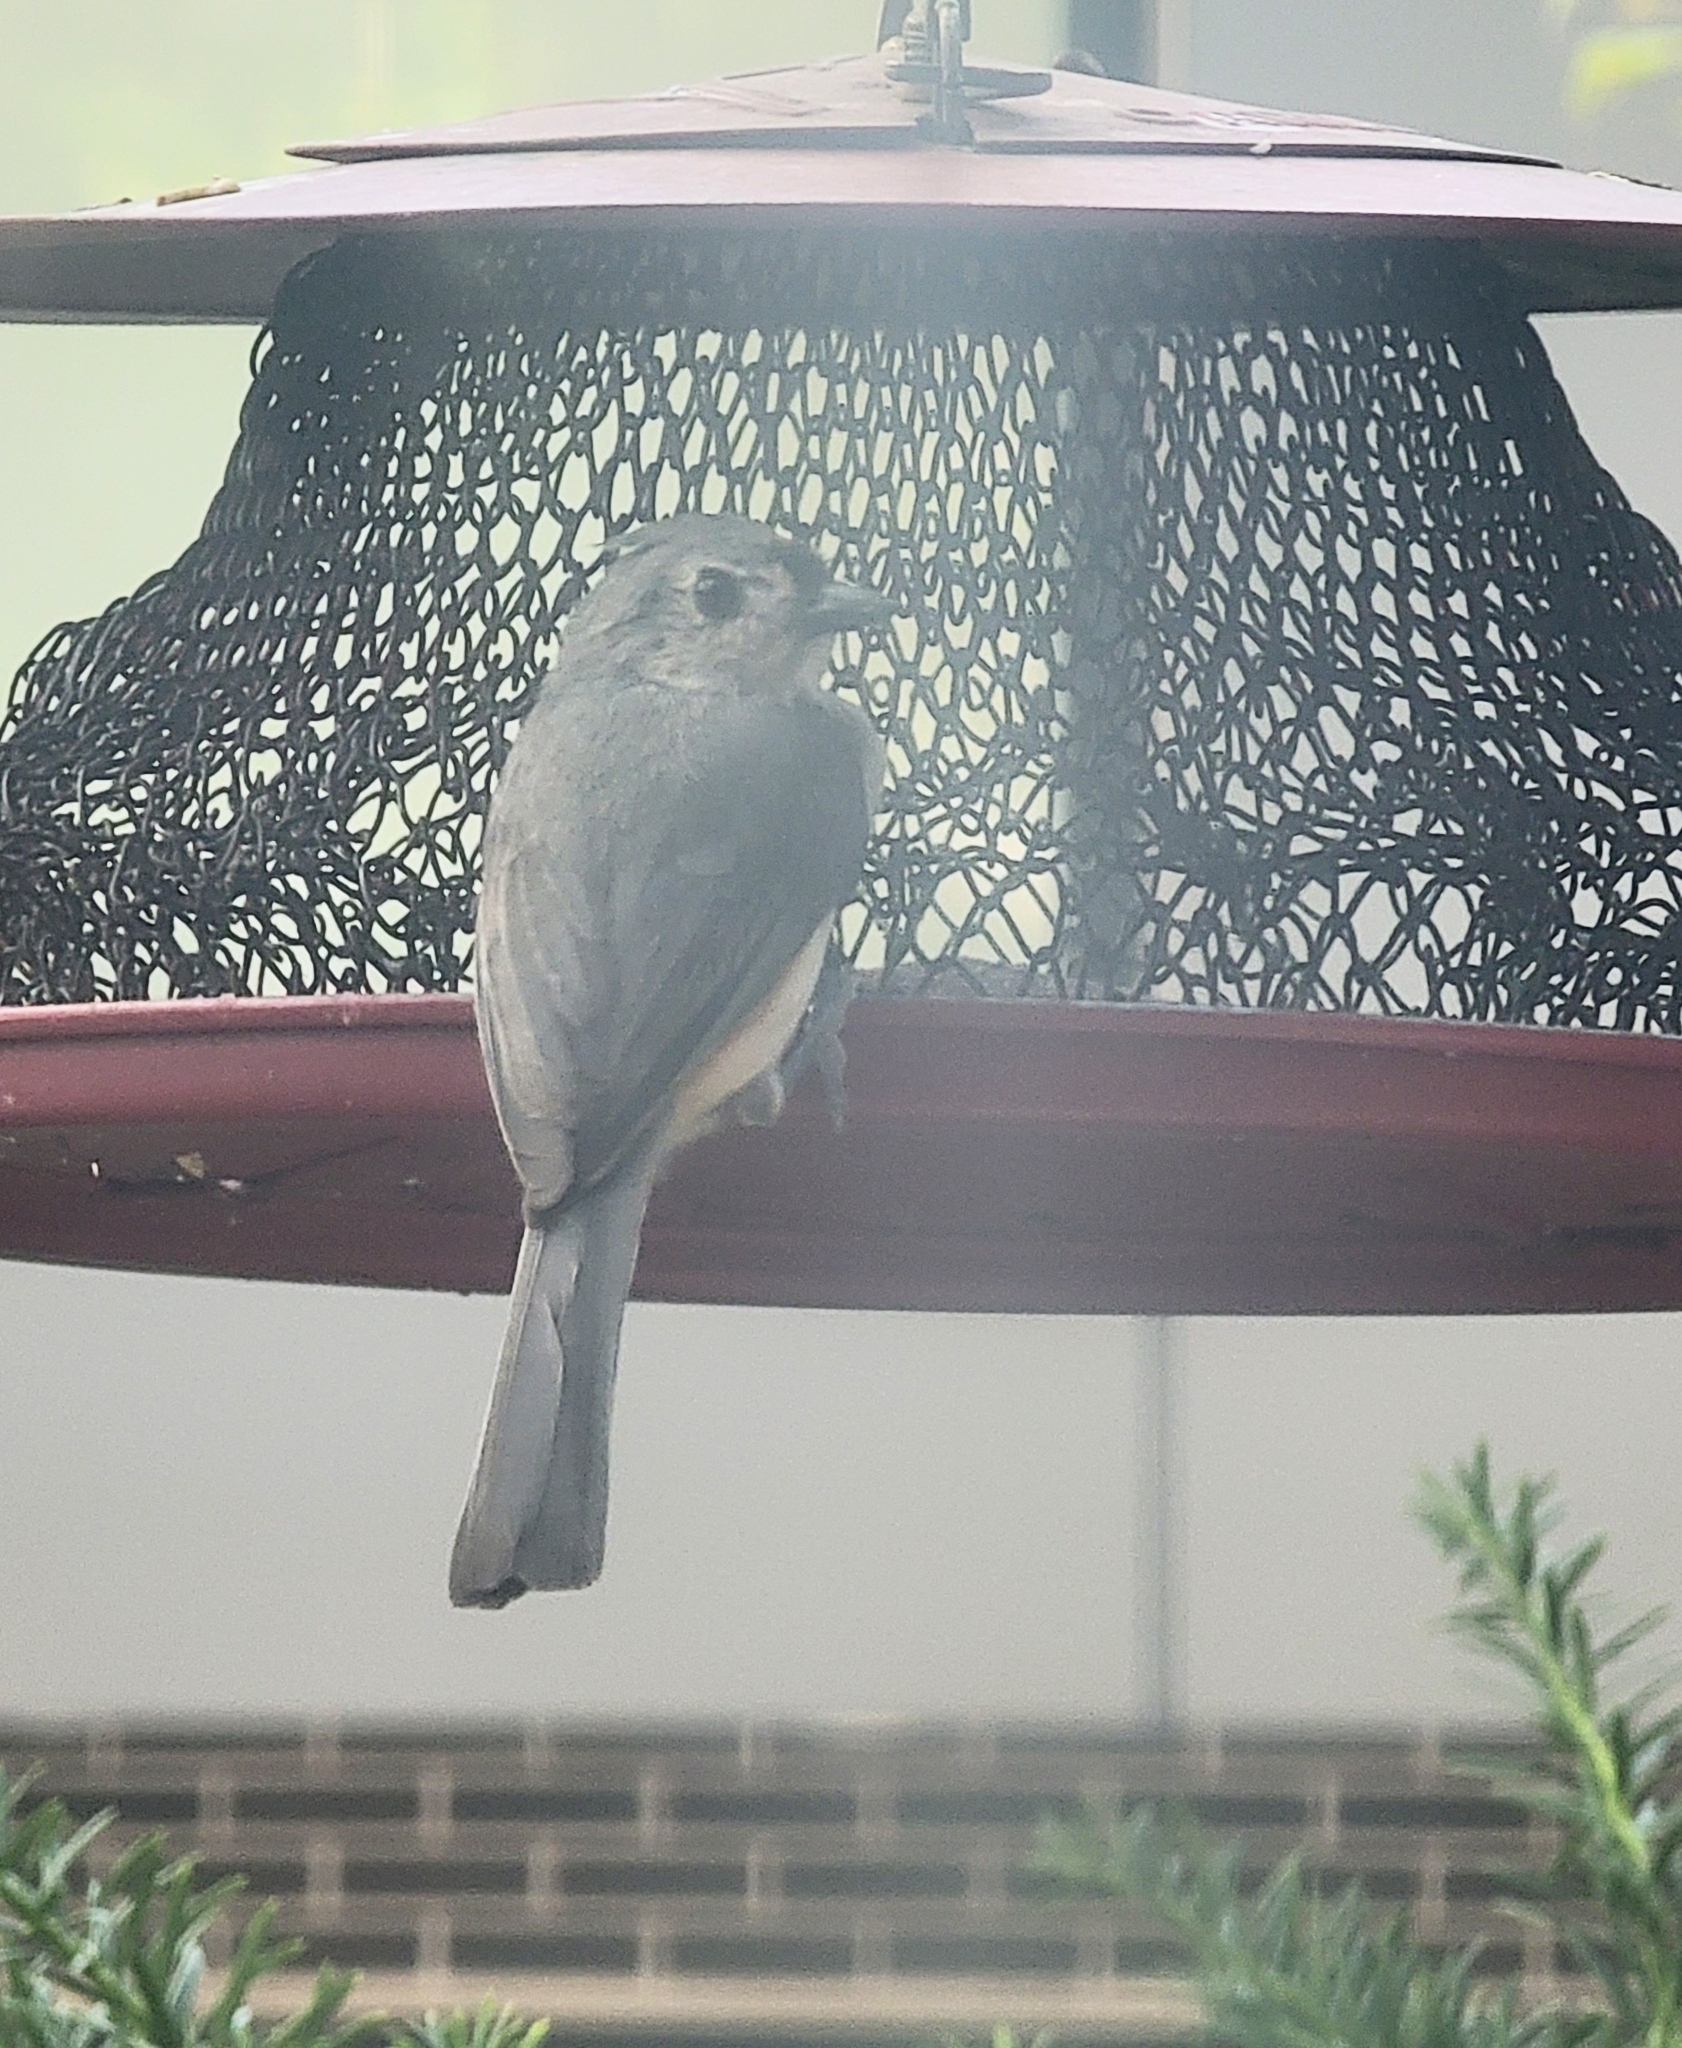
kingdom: Animalia
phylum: Chordata
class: Aves
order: Passeriformes
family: Paridae
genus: Baeolophus
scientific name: Baeolophus bicolor
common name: Tufted titmouse
